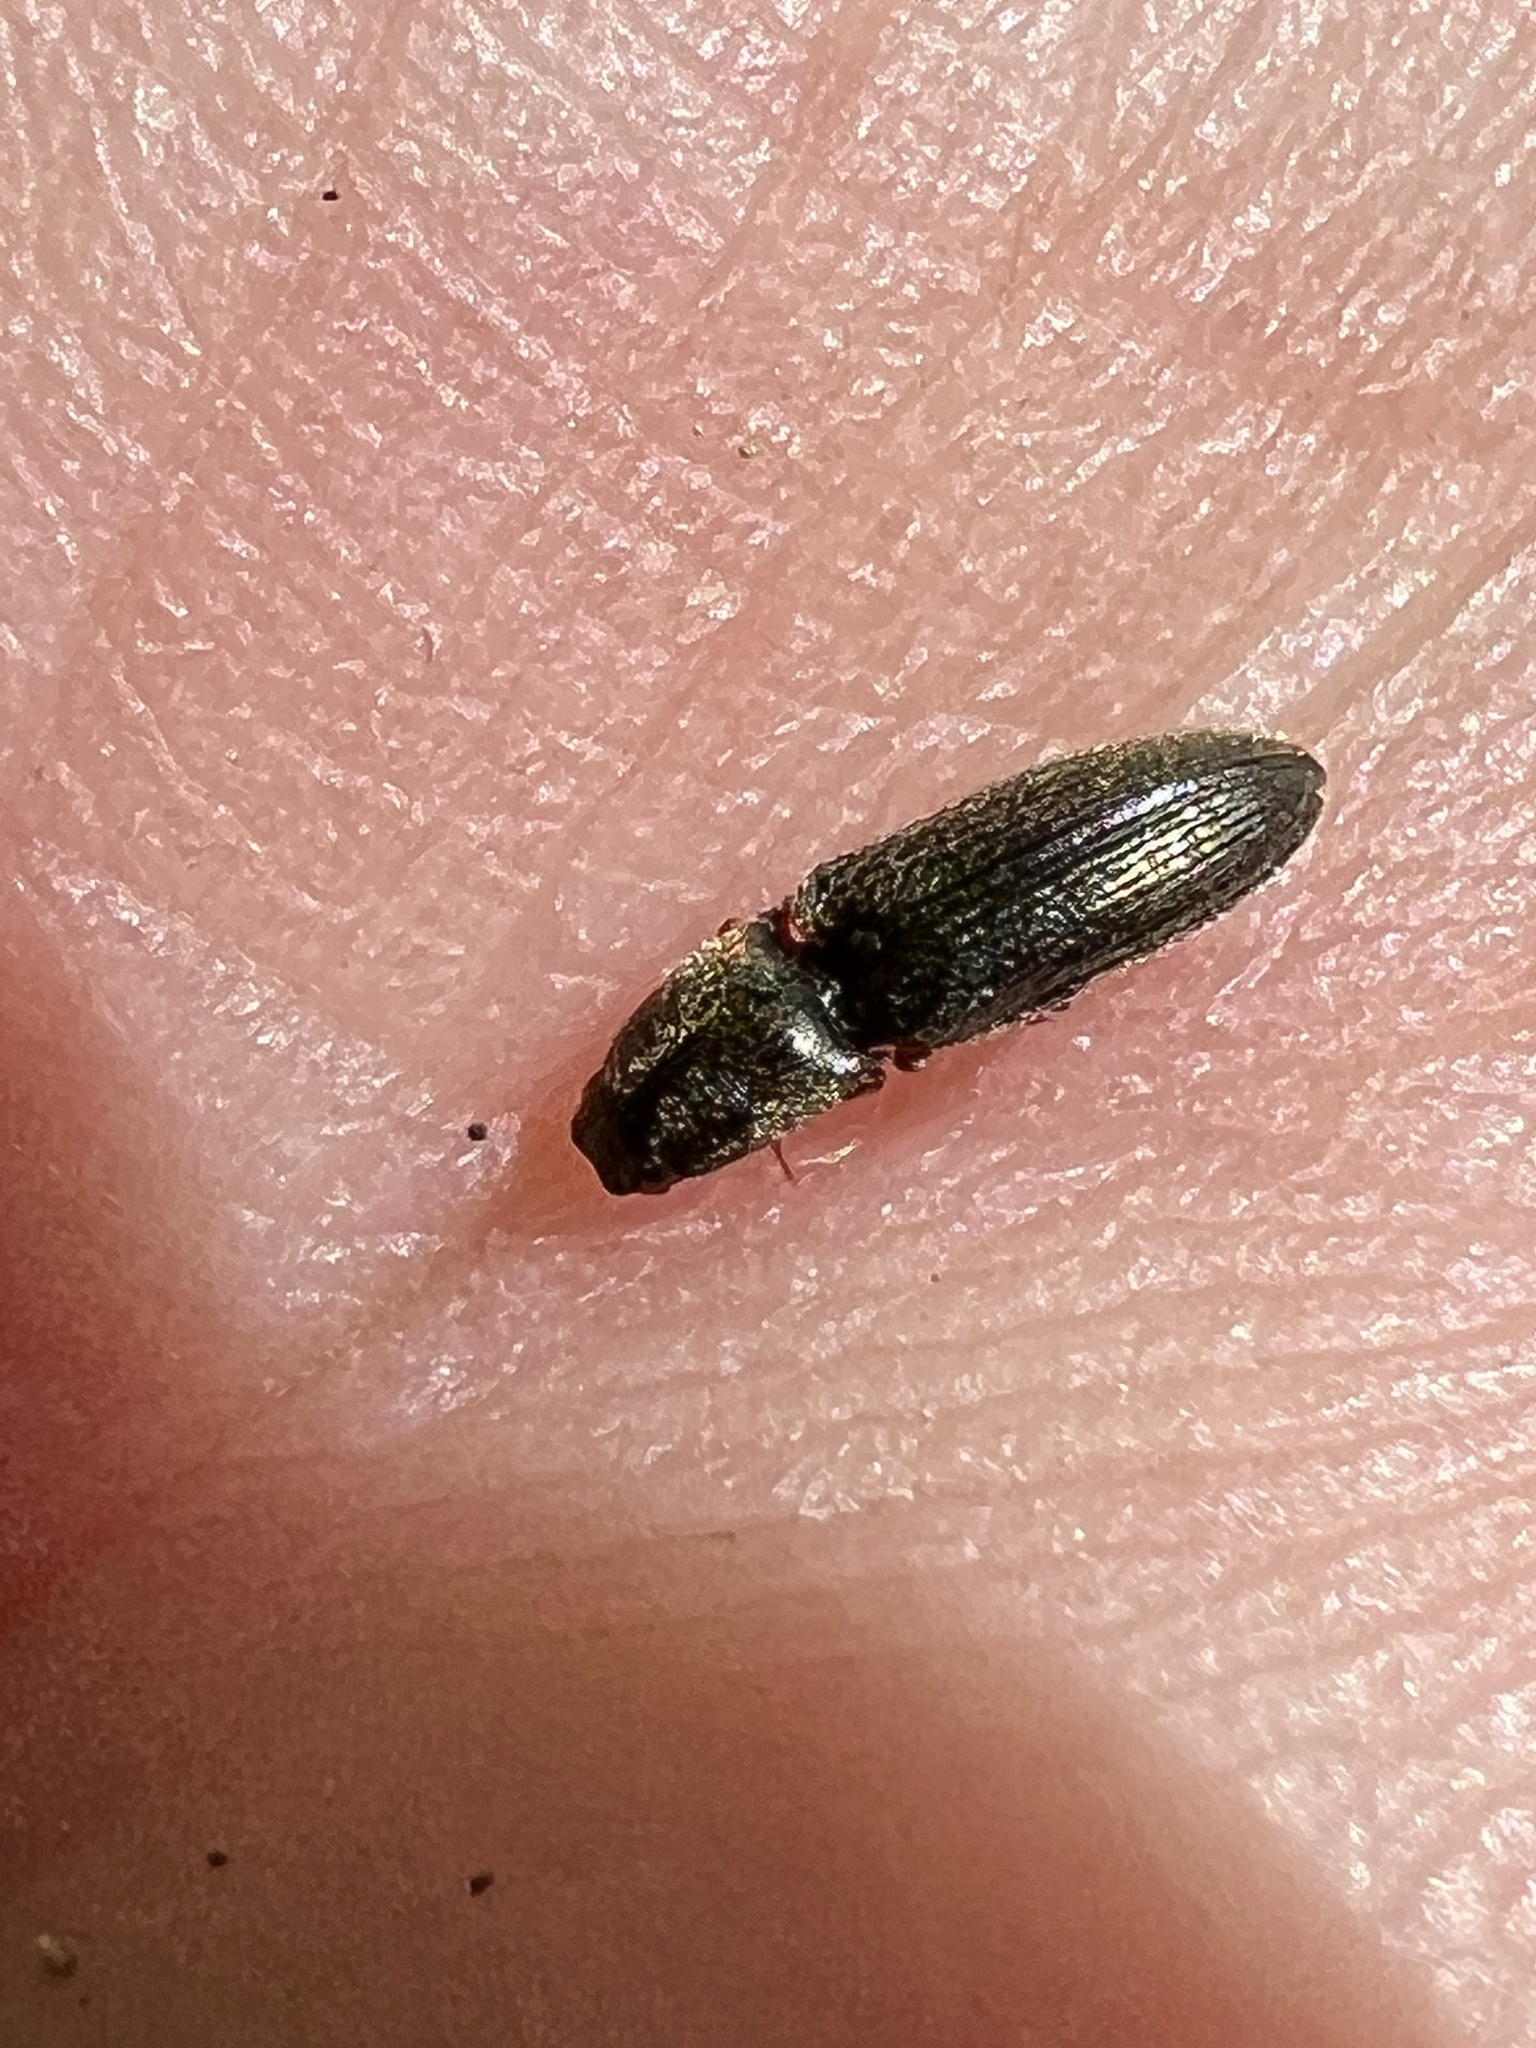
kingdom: Animalia
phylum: Arthropoda
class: Insecta
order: Coleoptera
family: Elateridae
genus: Limonius
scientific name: Limonius quercinus
